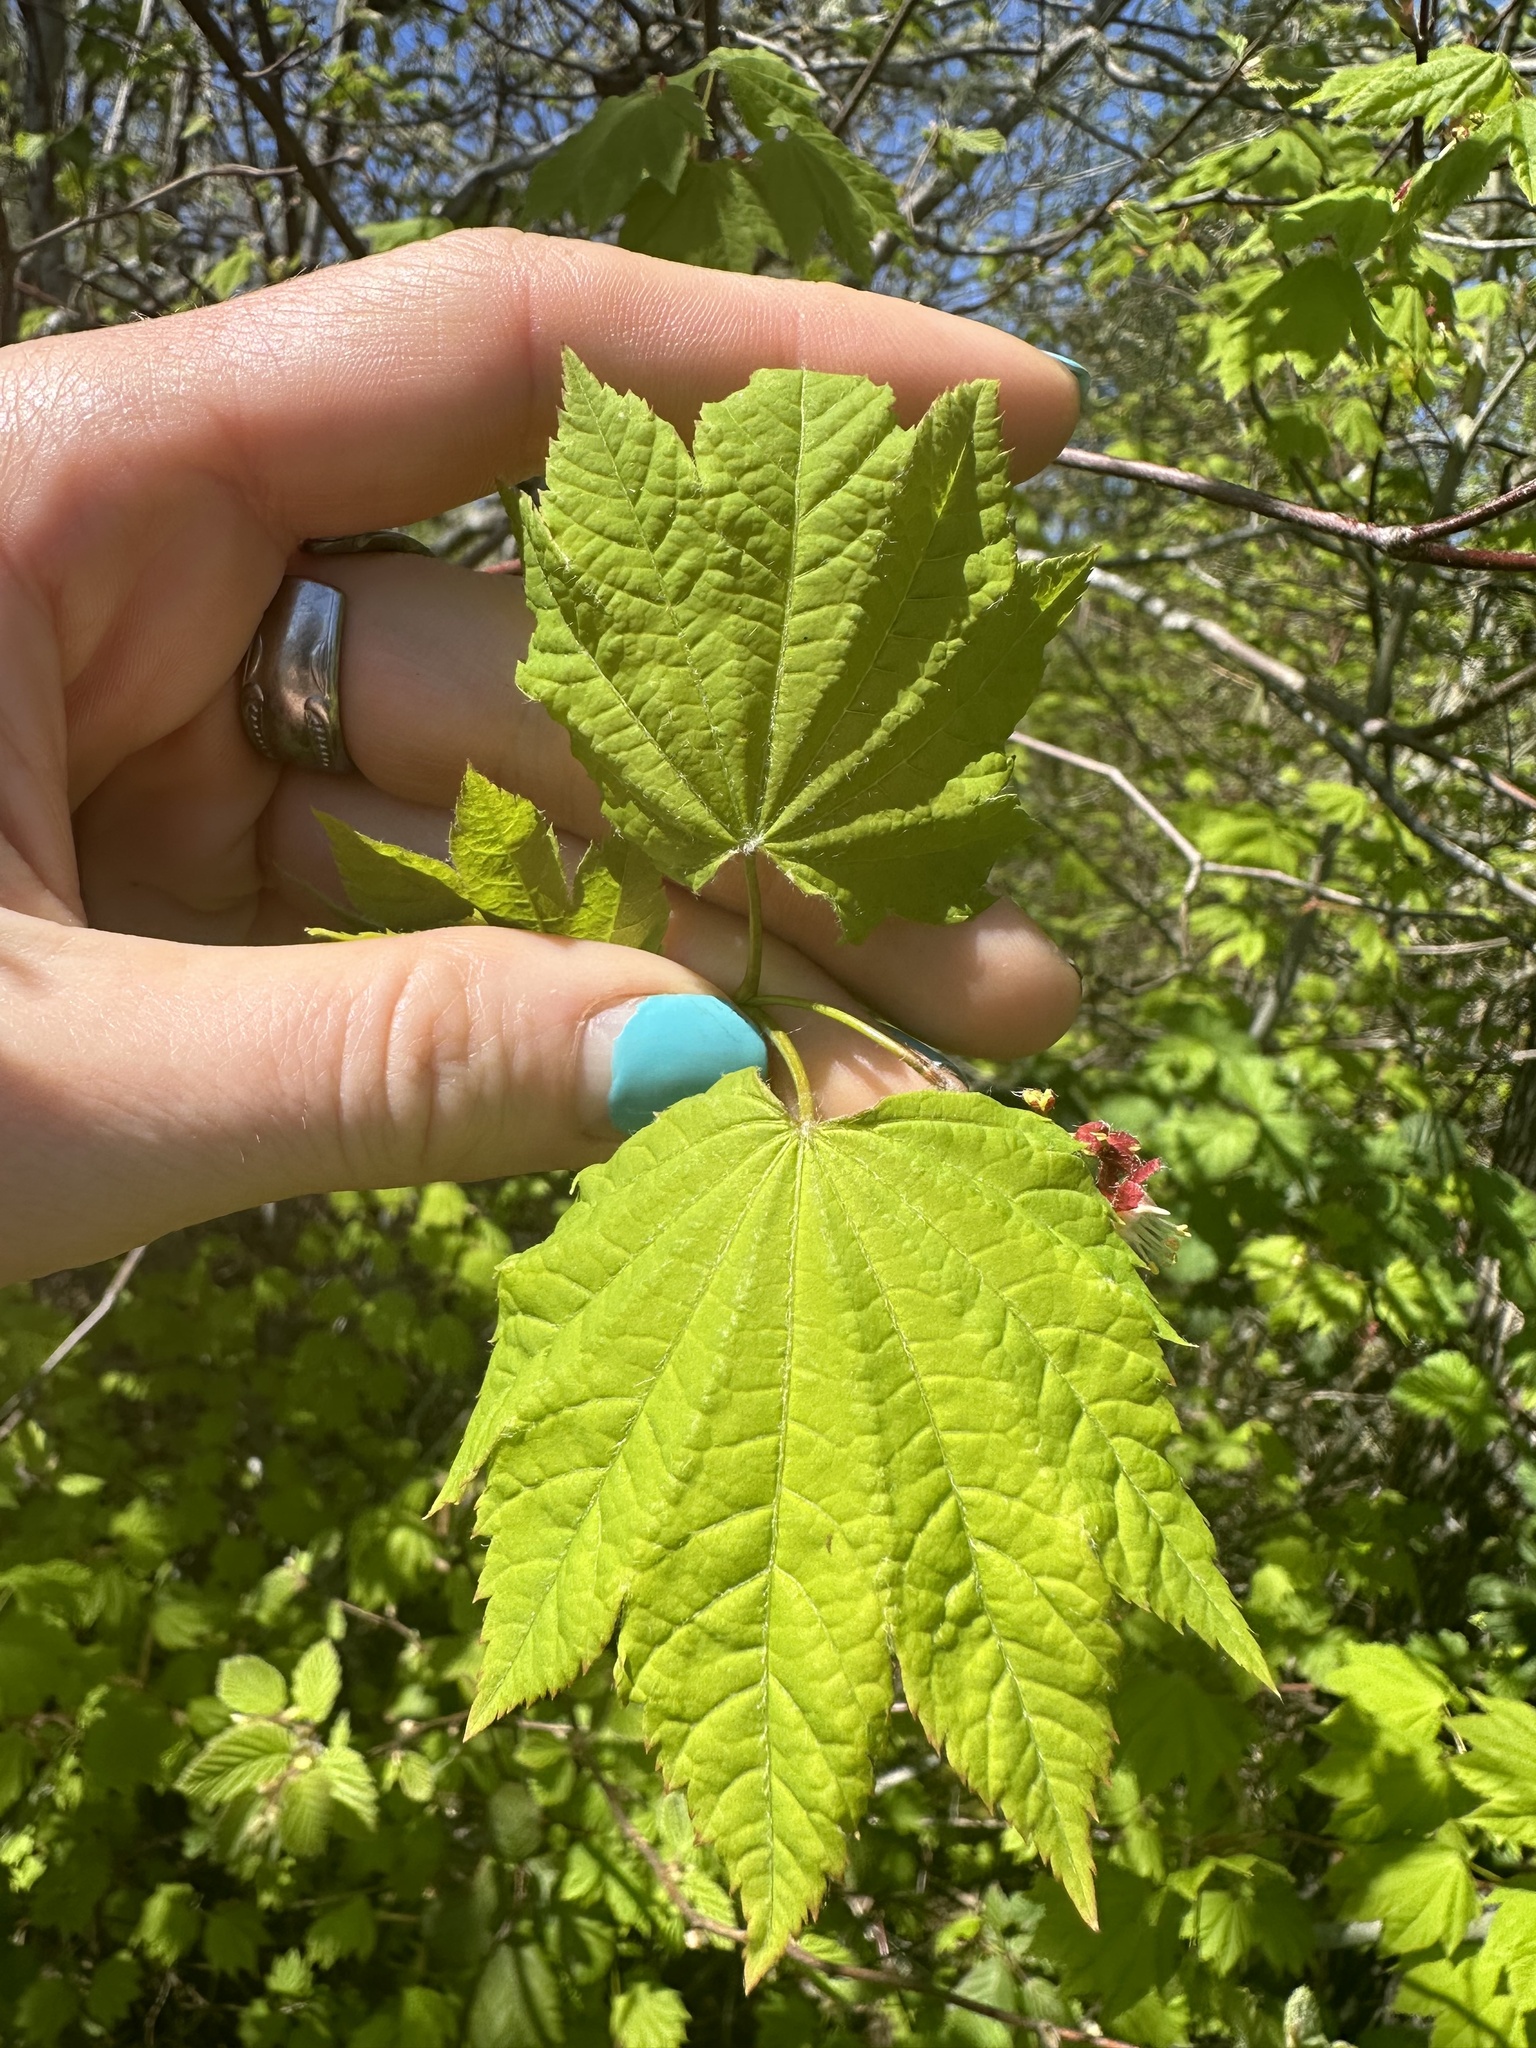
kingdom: Plantae
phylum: Tracheophyta
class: Magnoliopsida
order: Sapindales
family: Sapindaceae
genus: Acer
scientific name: Acer circinatum
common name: Vine maple
